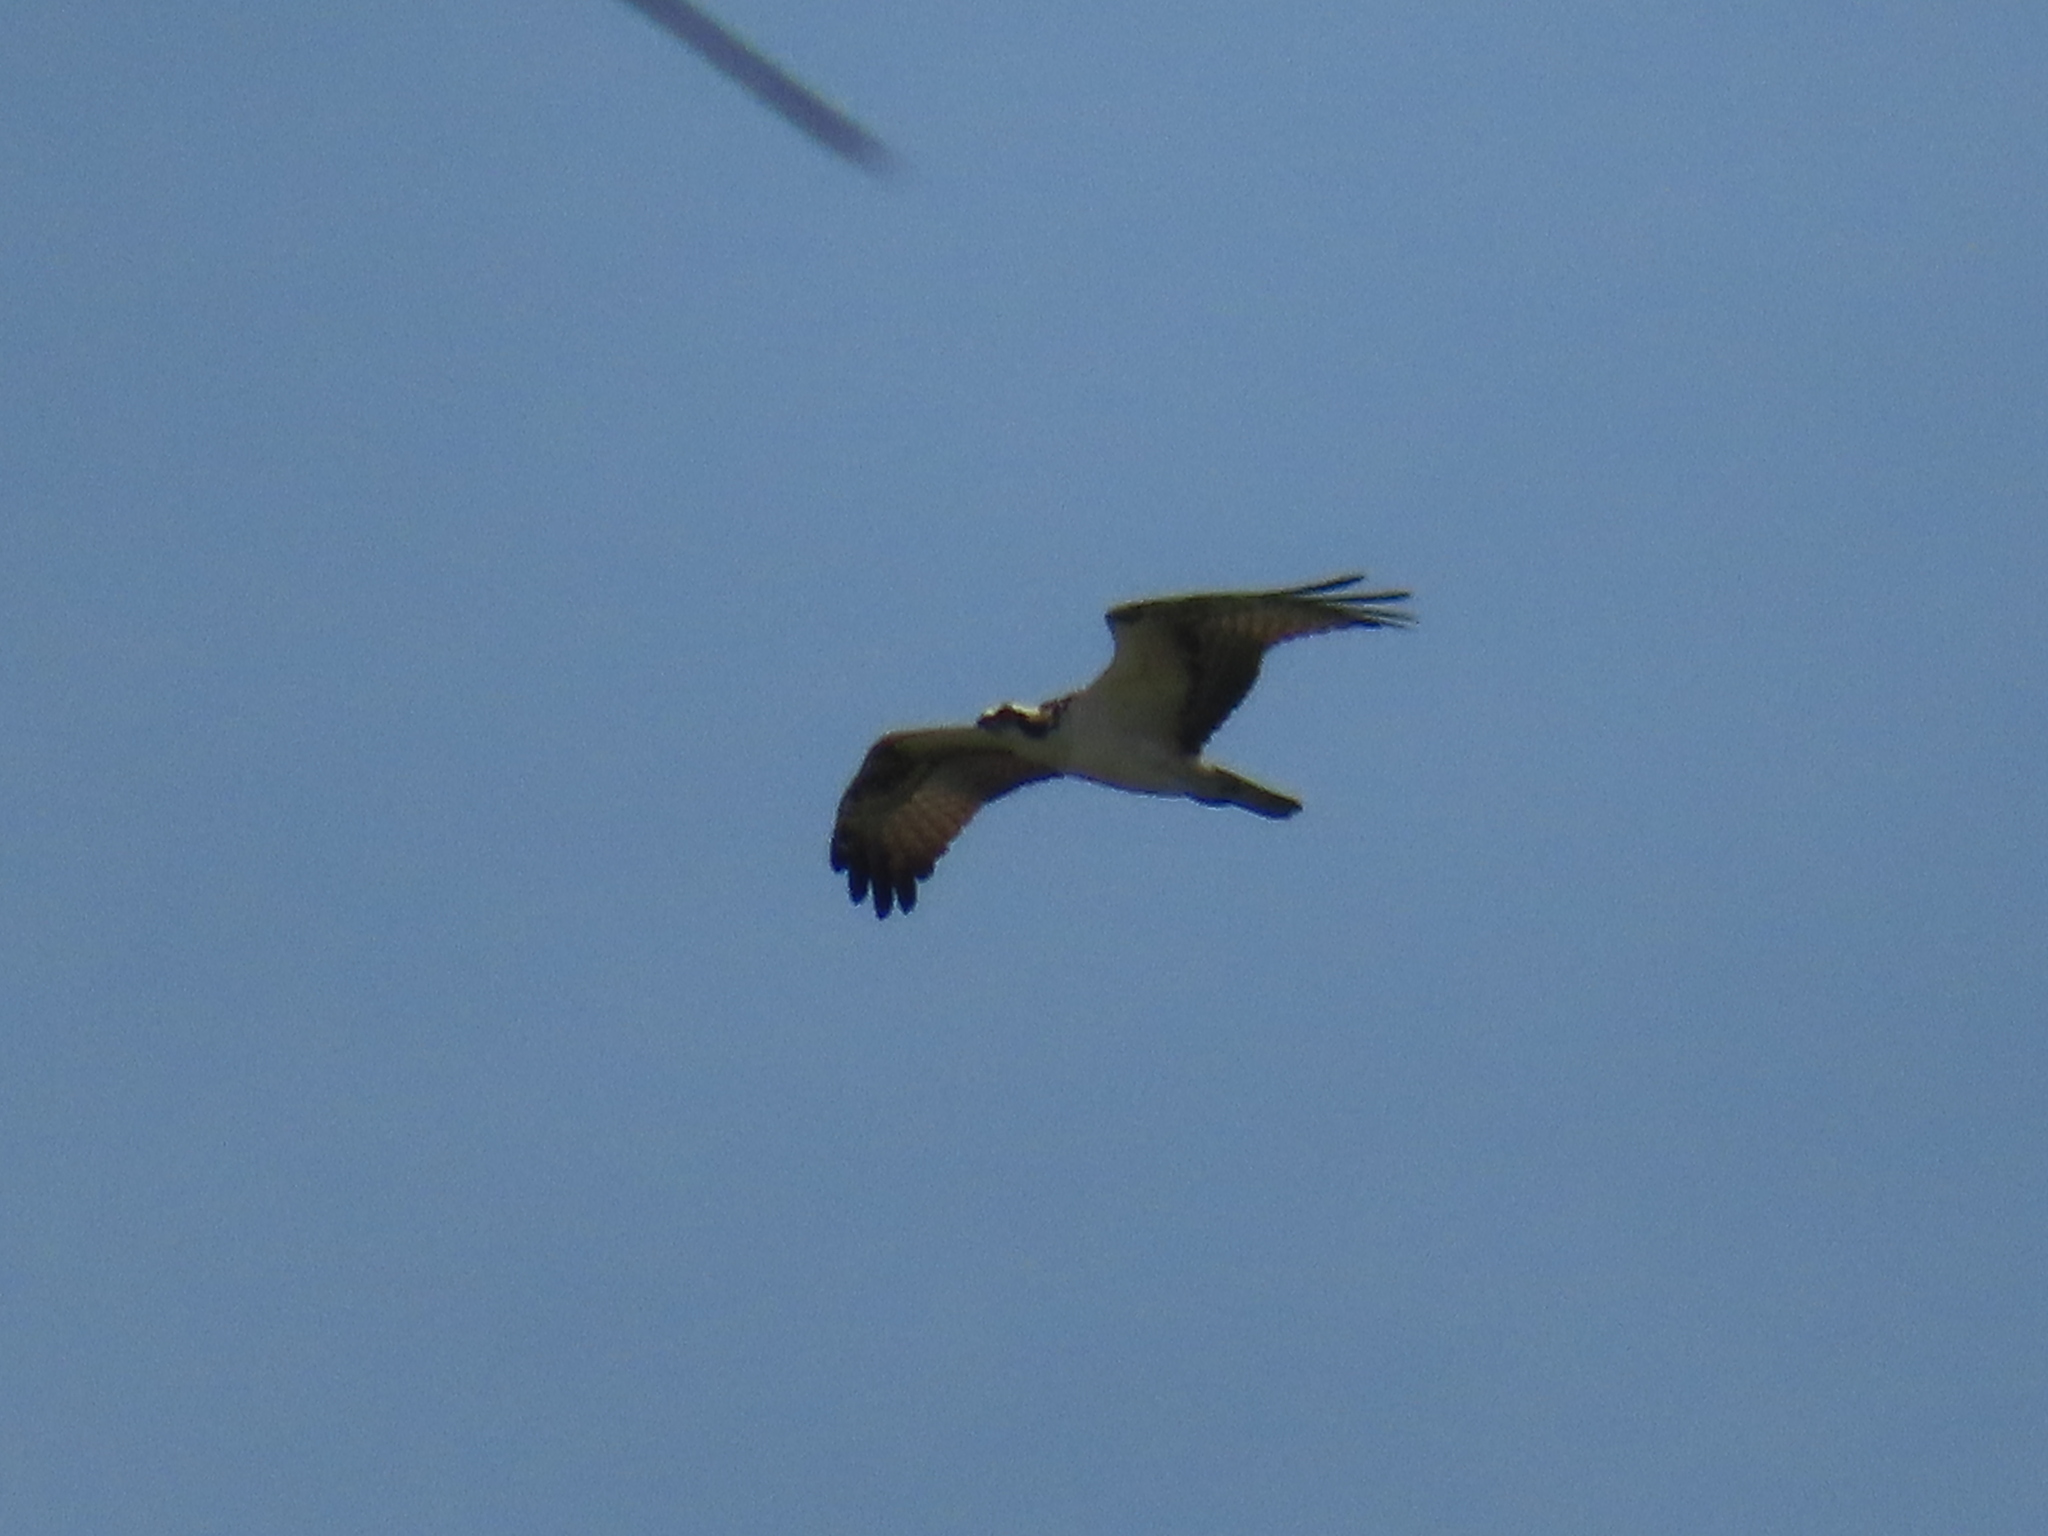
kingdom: Animalia
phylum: Chordata
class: Aves
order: Accipitriformes
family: Pandionidae
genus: Pandion
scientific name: Pandion haliaetus
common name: Osprey
